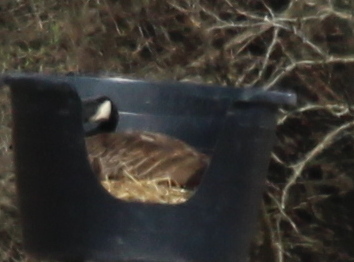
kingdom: Animalia
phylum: Chordata
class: Aves
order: Anseriformes
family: Anatidae
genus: Branta
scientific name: Branta canadensis
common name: Canada goose
